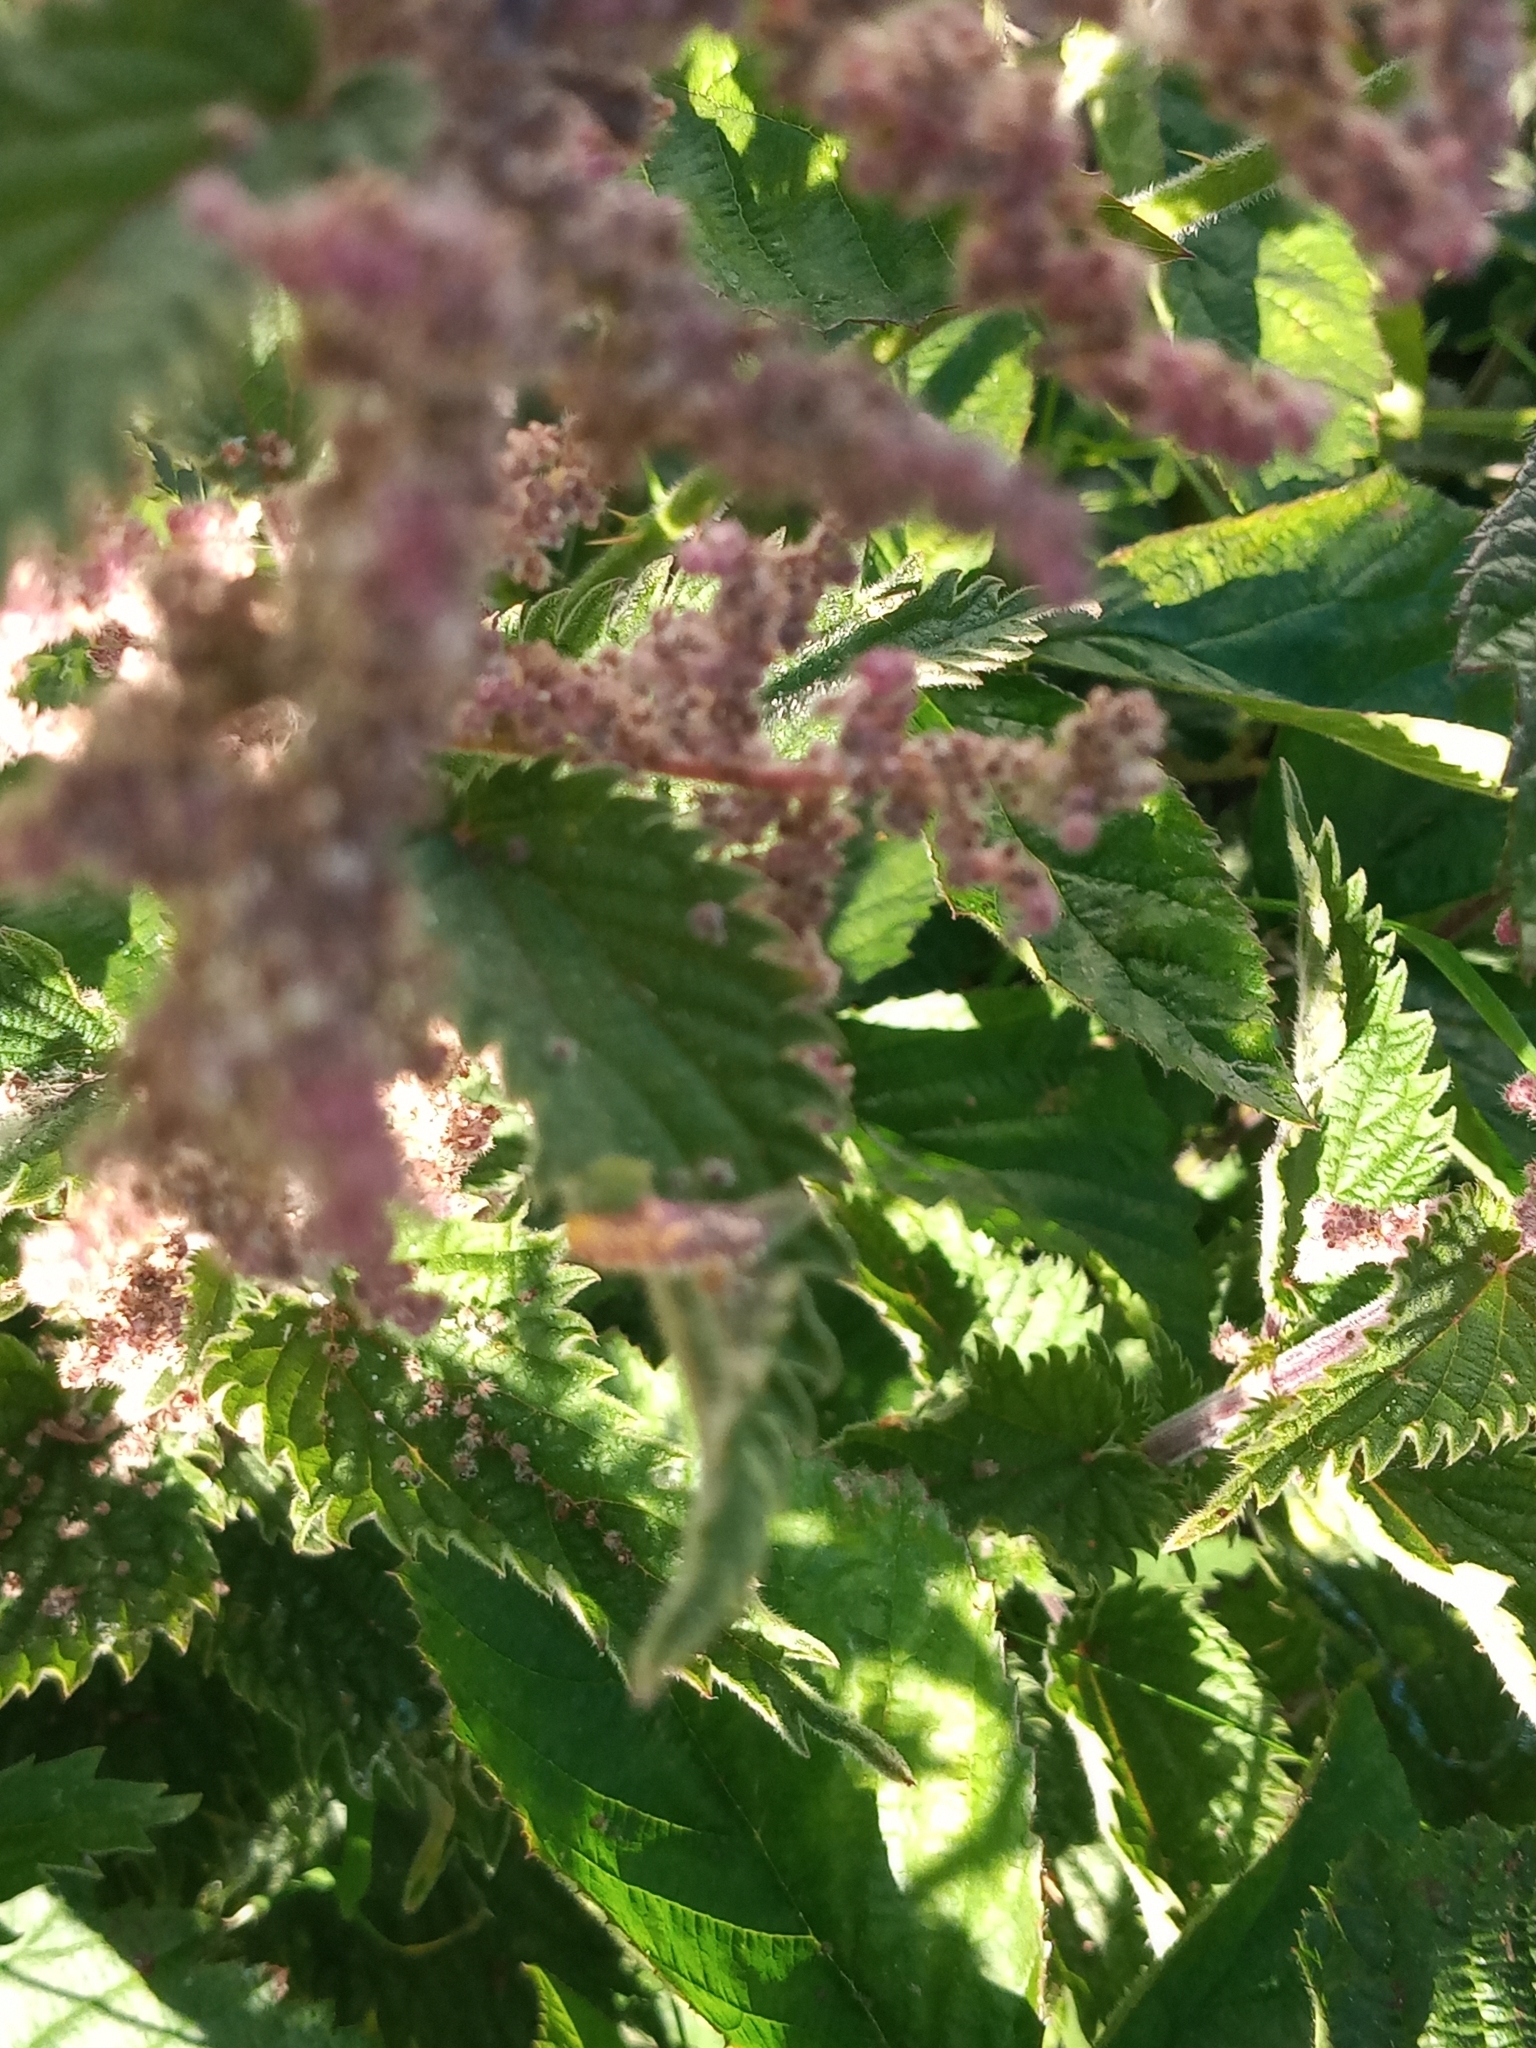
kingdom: Plantae
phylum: Tracheophyta
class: Magnoliopsida
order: Rosales
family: Urticaceae
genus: Urtica
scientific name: Urtica dioica
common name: Common nettle
